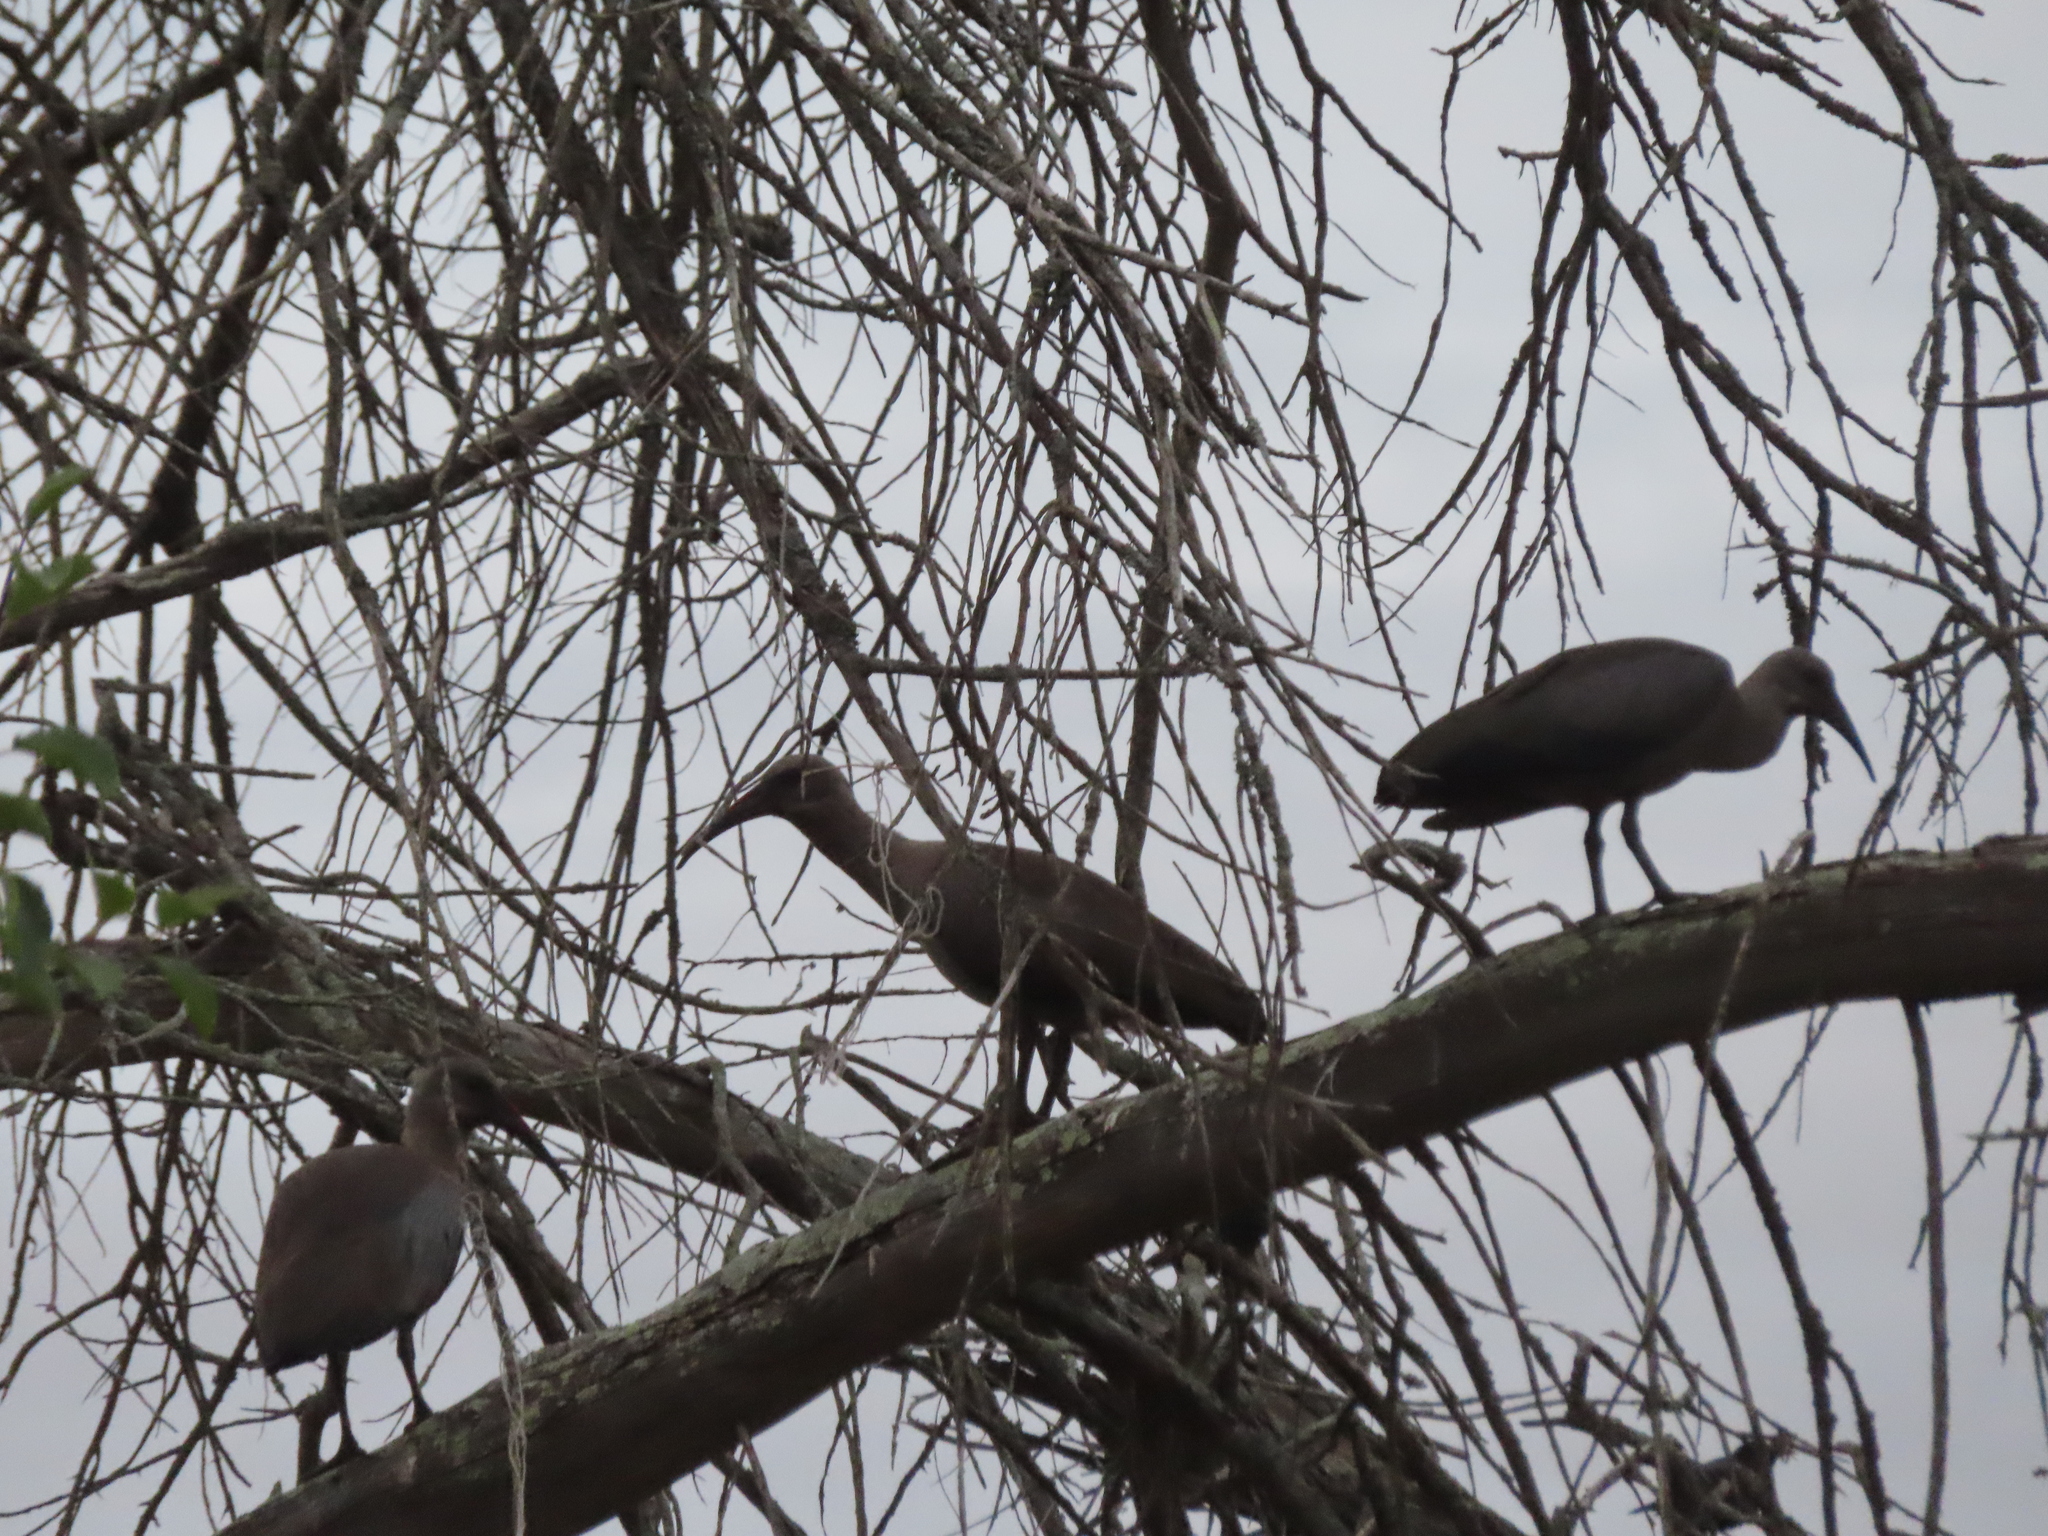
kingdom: Animalia
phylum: Chordata
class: Aves
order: Pelecaniformes
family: Threskiornithidae
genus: Bostrychia
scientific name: Bostrychia hagedash
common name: Hadada ibis
